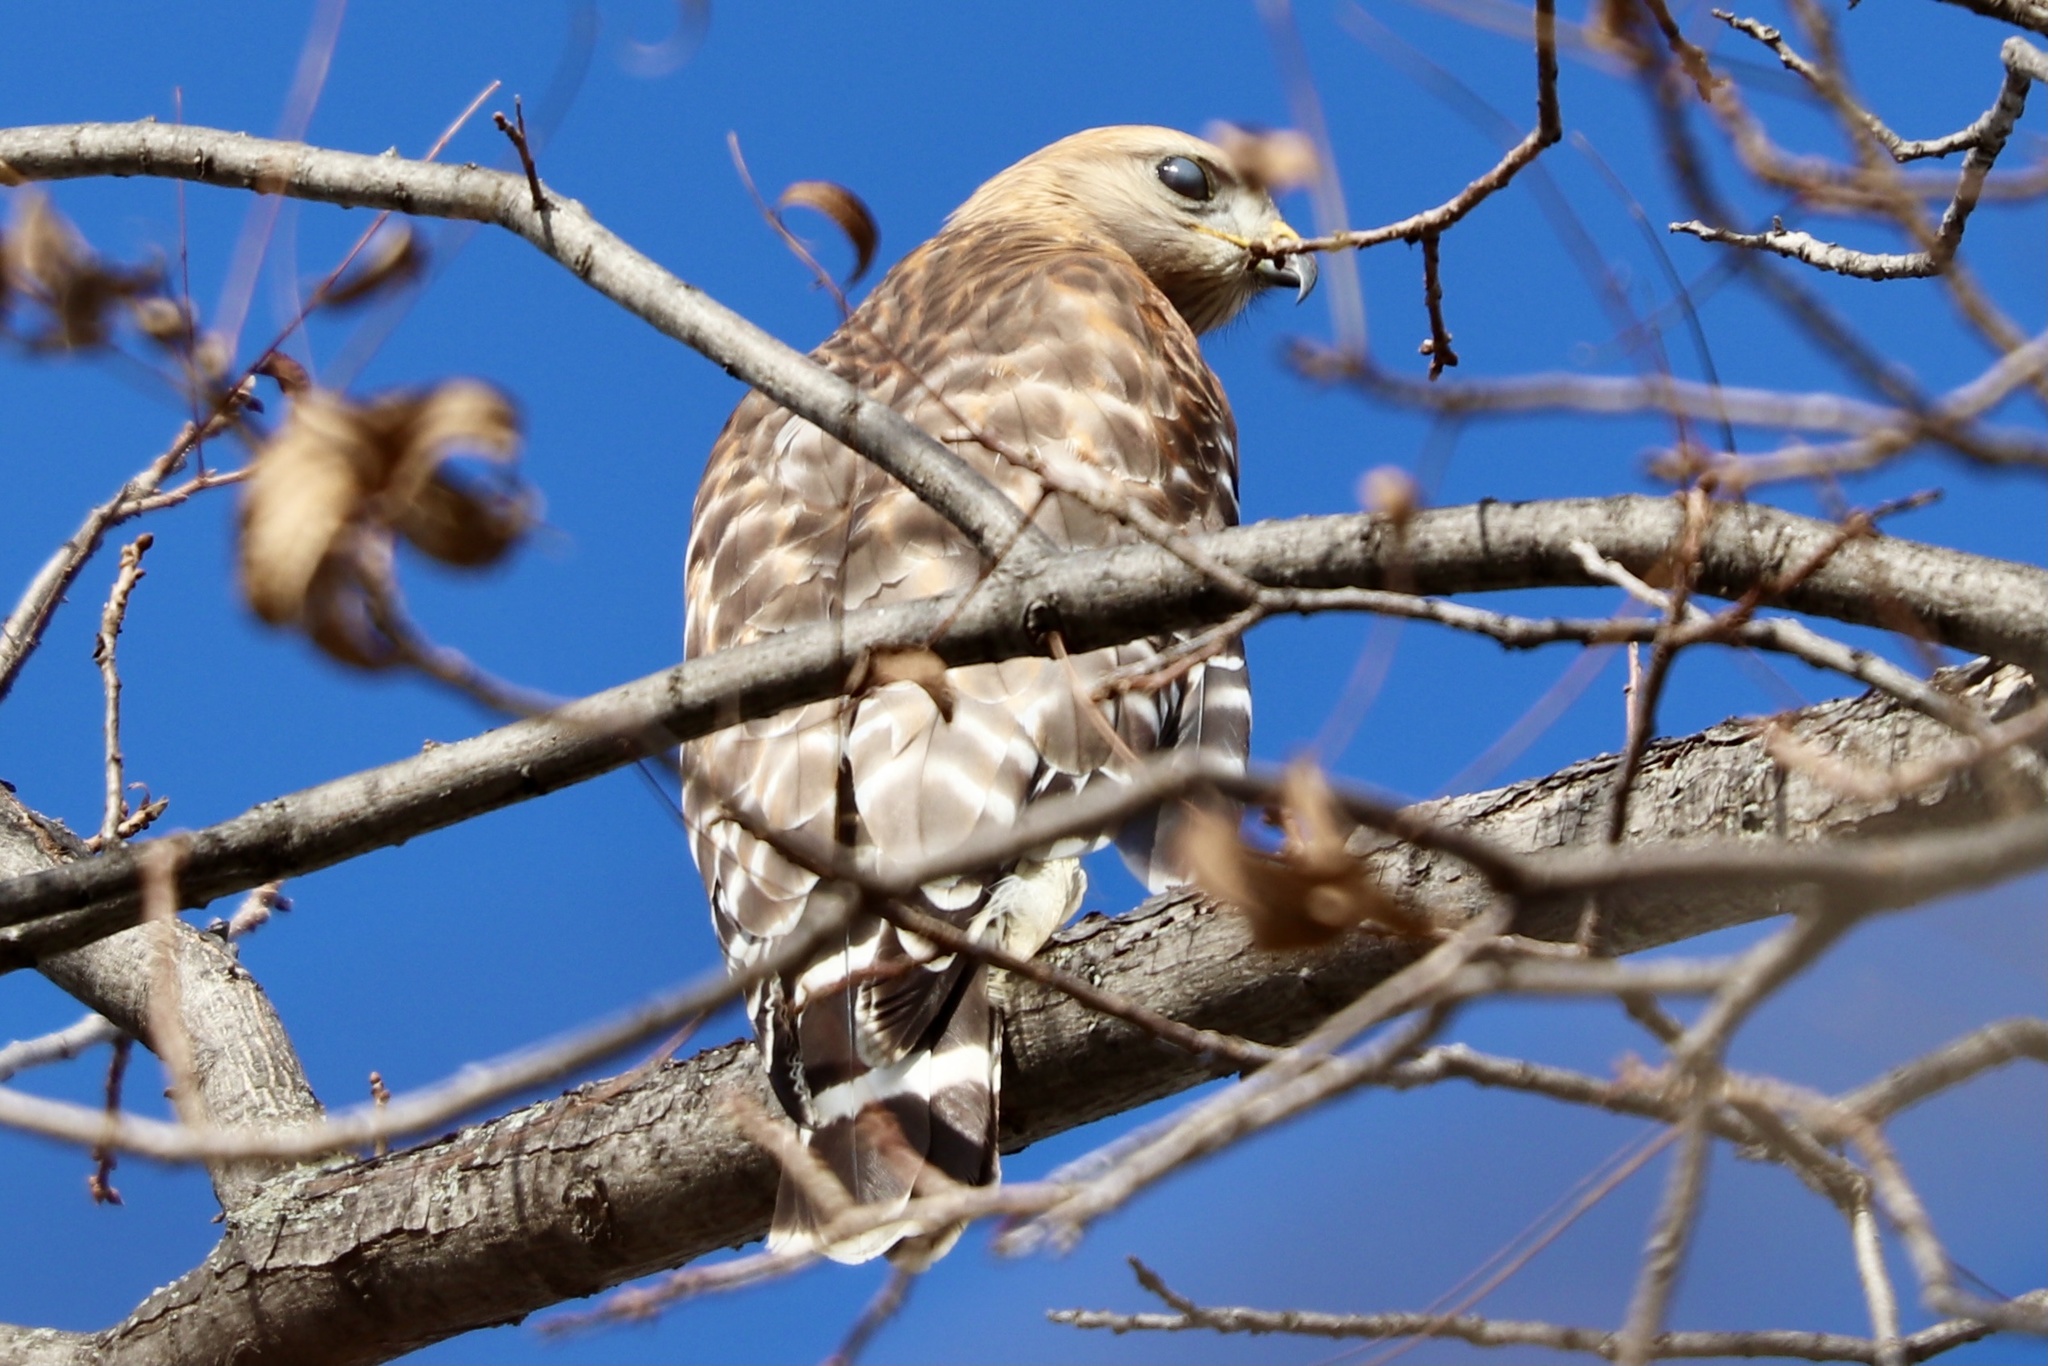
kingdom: Animalia
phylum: Chordata
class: Aves
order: Accipitriformes
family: Accipitridae
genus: Buteo
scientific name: Buteo lineatus
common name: Red-shouldered hawk
